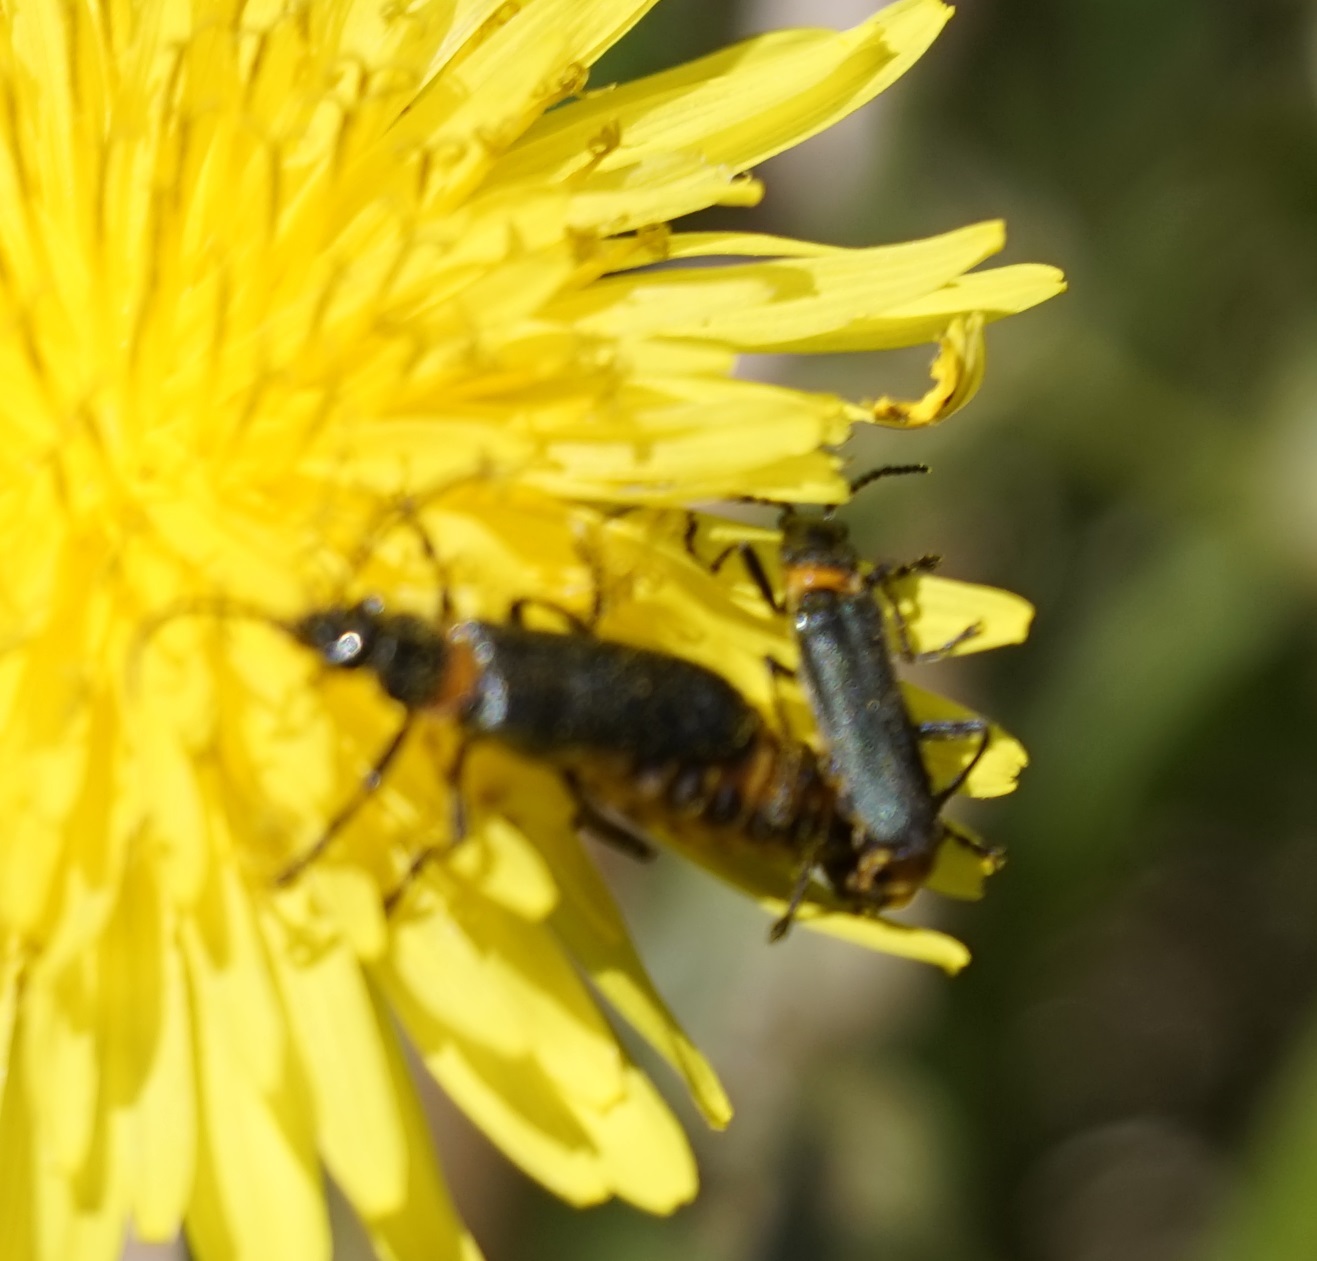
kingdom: Animalia
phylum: Arthropoda
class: Insecta
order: Coleoptera
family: Cantharidae
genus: Chauliognathus
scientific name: Chauliognathus
